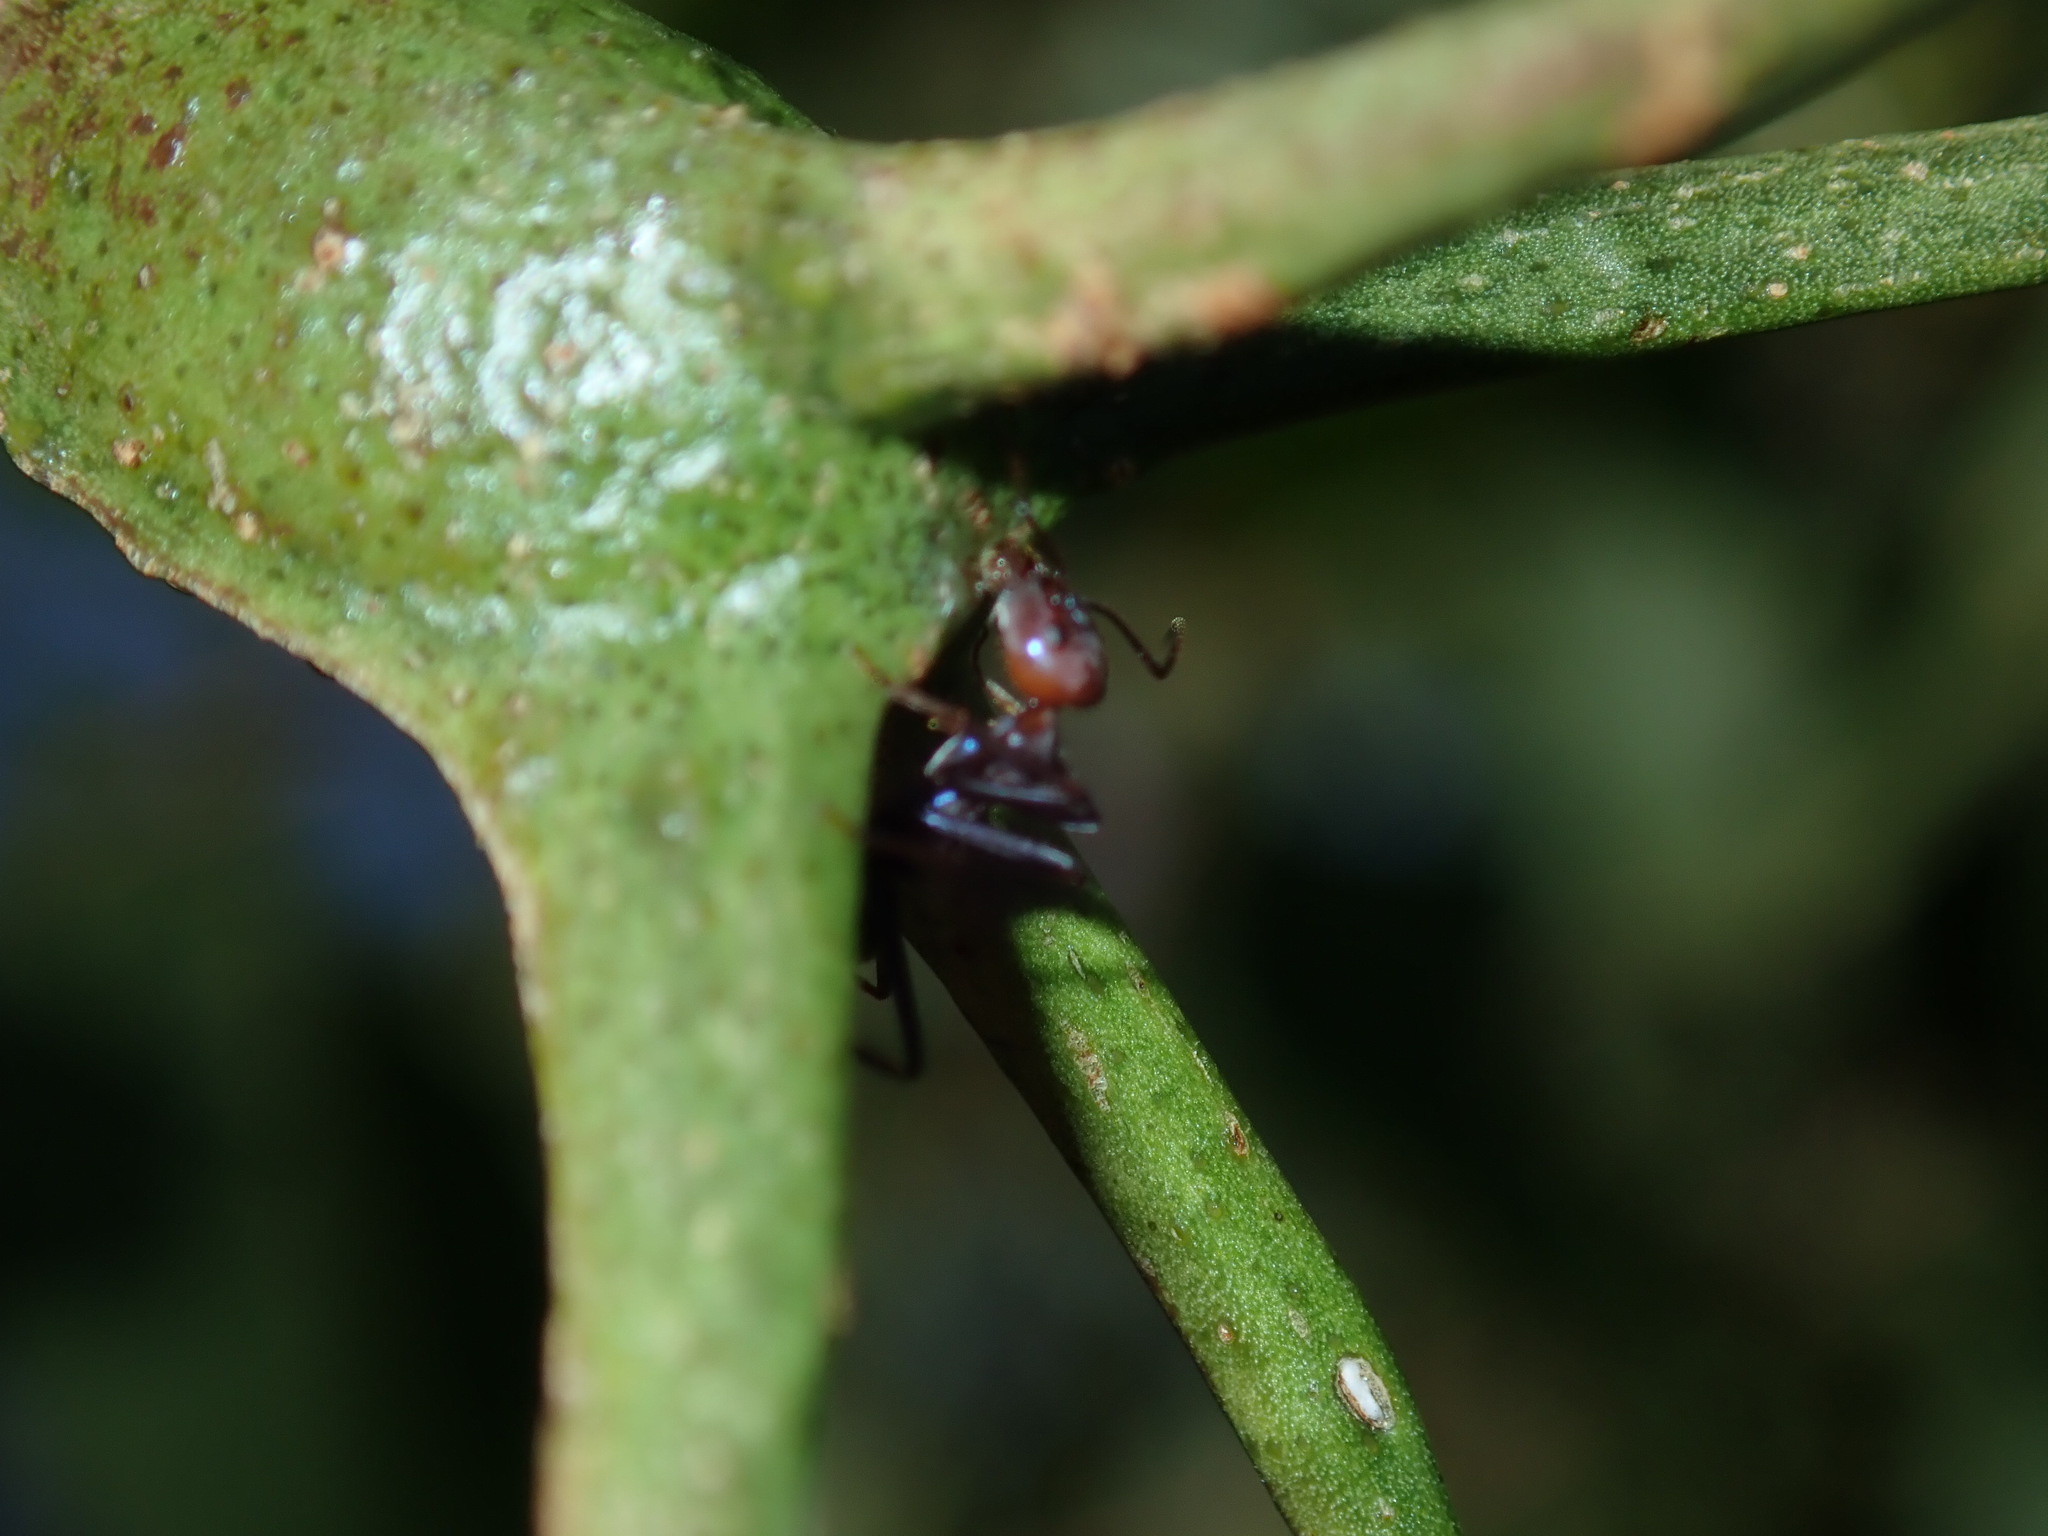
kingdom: Animalia
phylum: Arthropoda
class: Insecta
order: Hymenoptera
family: Formicidae
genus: Iridomyrmex
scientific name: Iridomyrmex purpureus
